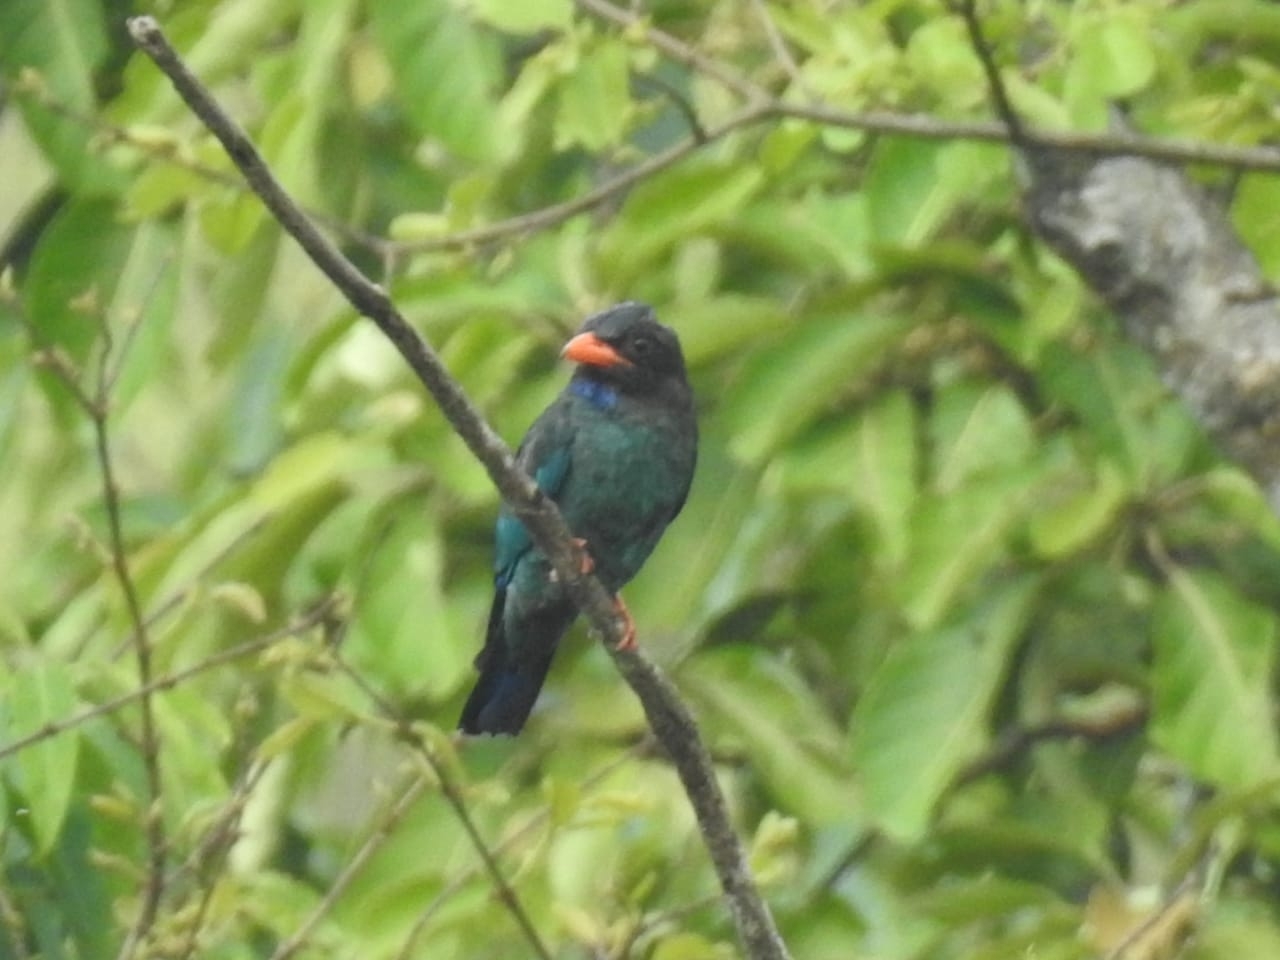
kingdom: Animalia
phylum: Chordata
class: Aves
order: Coraciiformes
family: Coraciidae
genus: Eurystomus
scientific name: Eurystomus orientalis
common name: Oriental dollarbird
